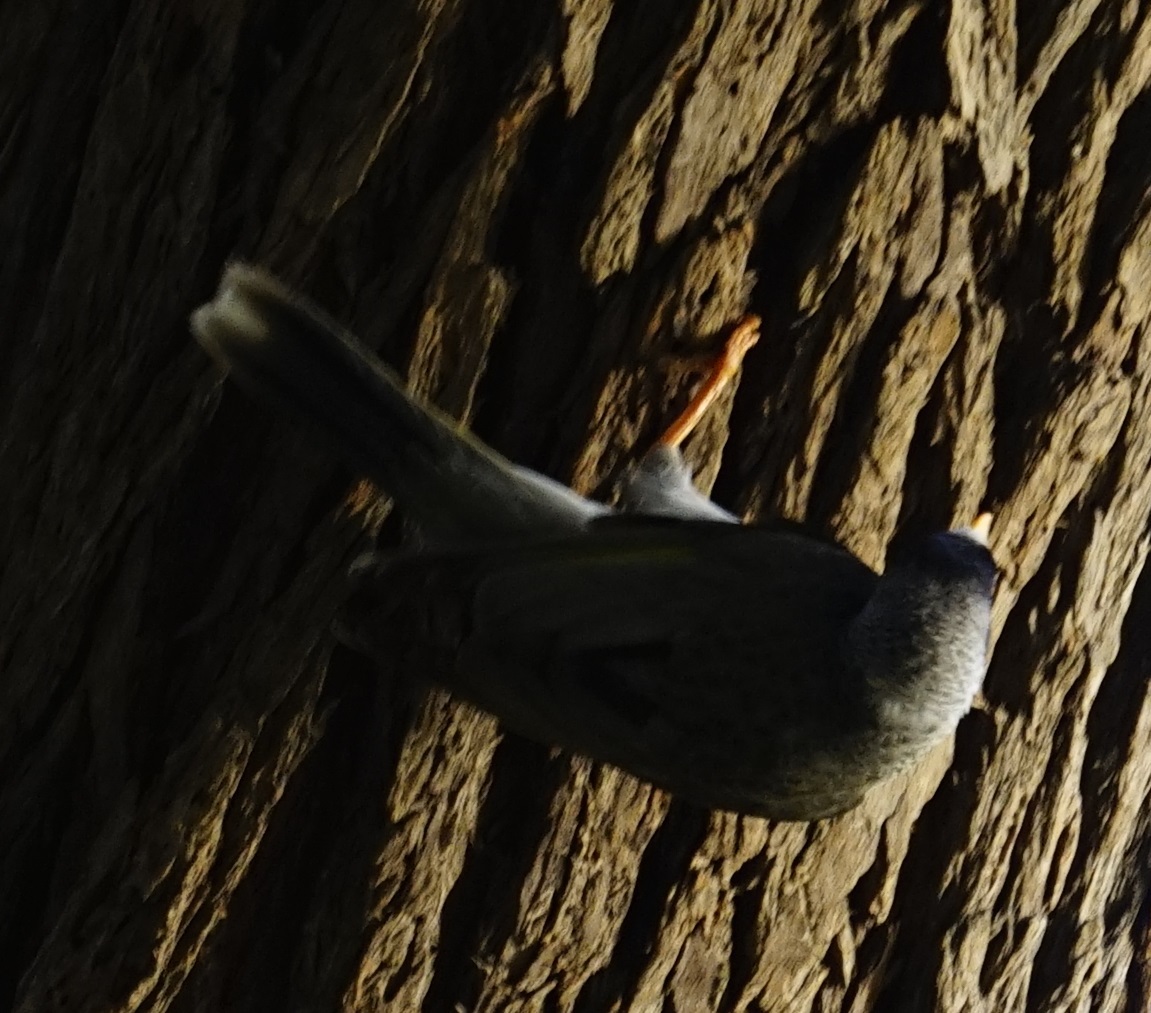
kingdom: Animalia
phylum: Chordata
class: Aves
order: Passeriformes
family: Meliphagidae
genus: Manorina
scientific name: Manorina melanocephala
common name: Noisy miner
